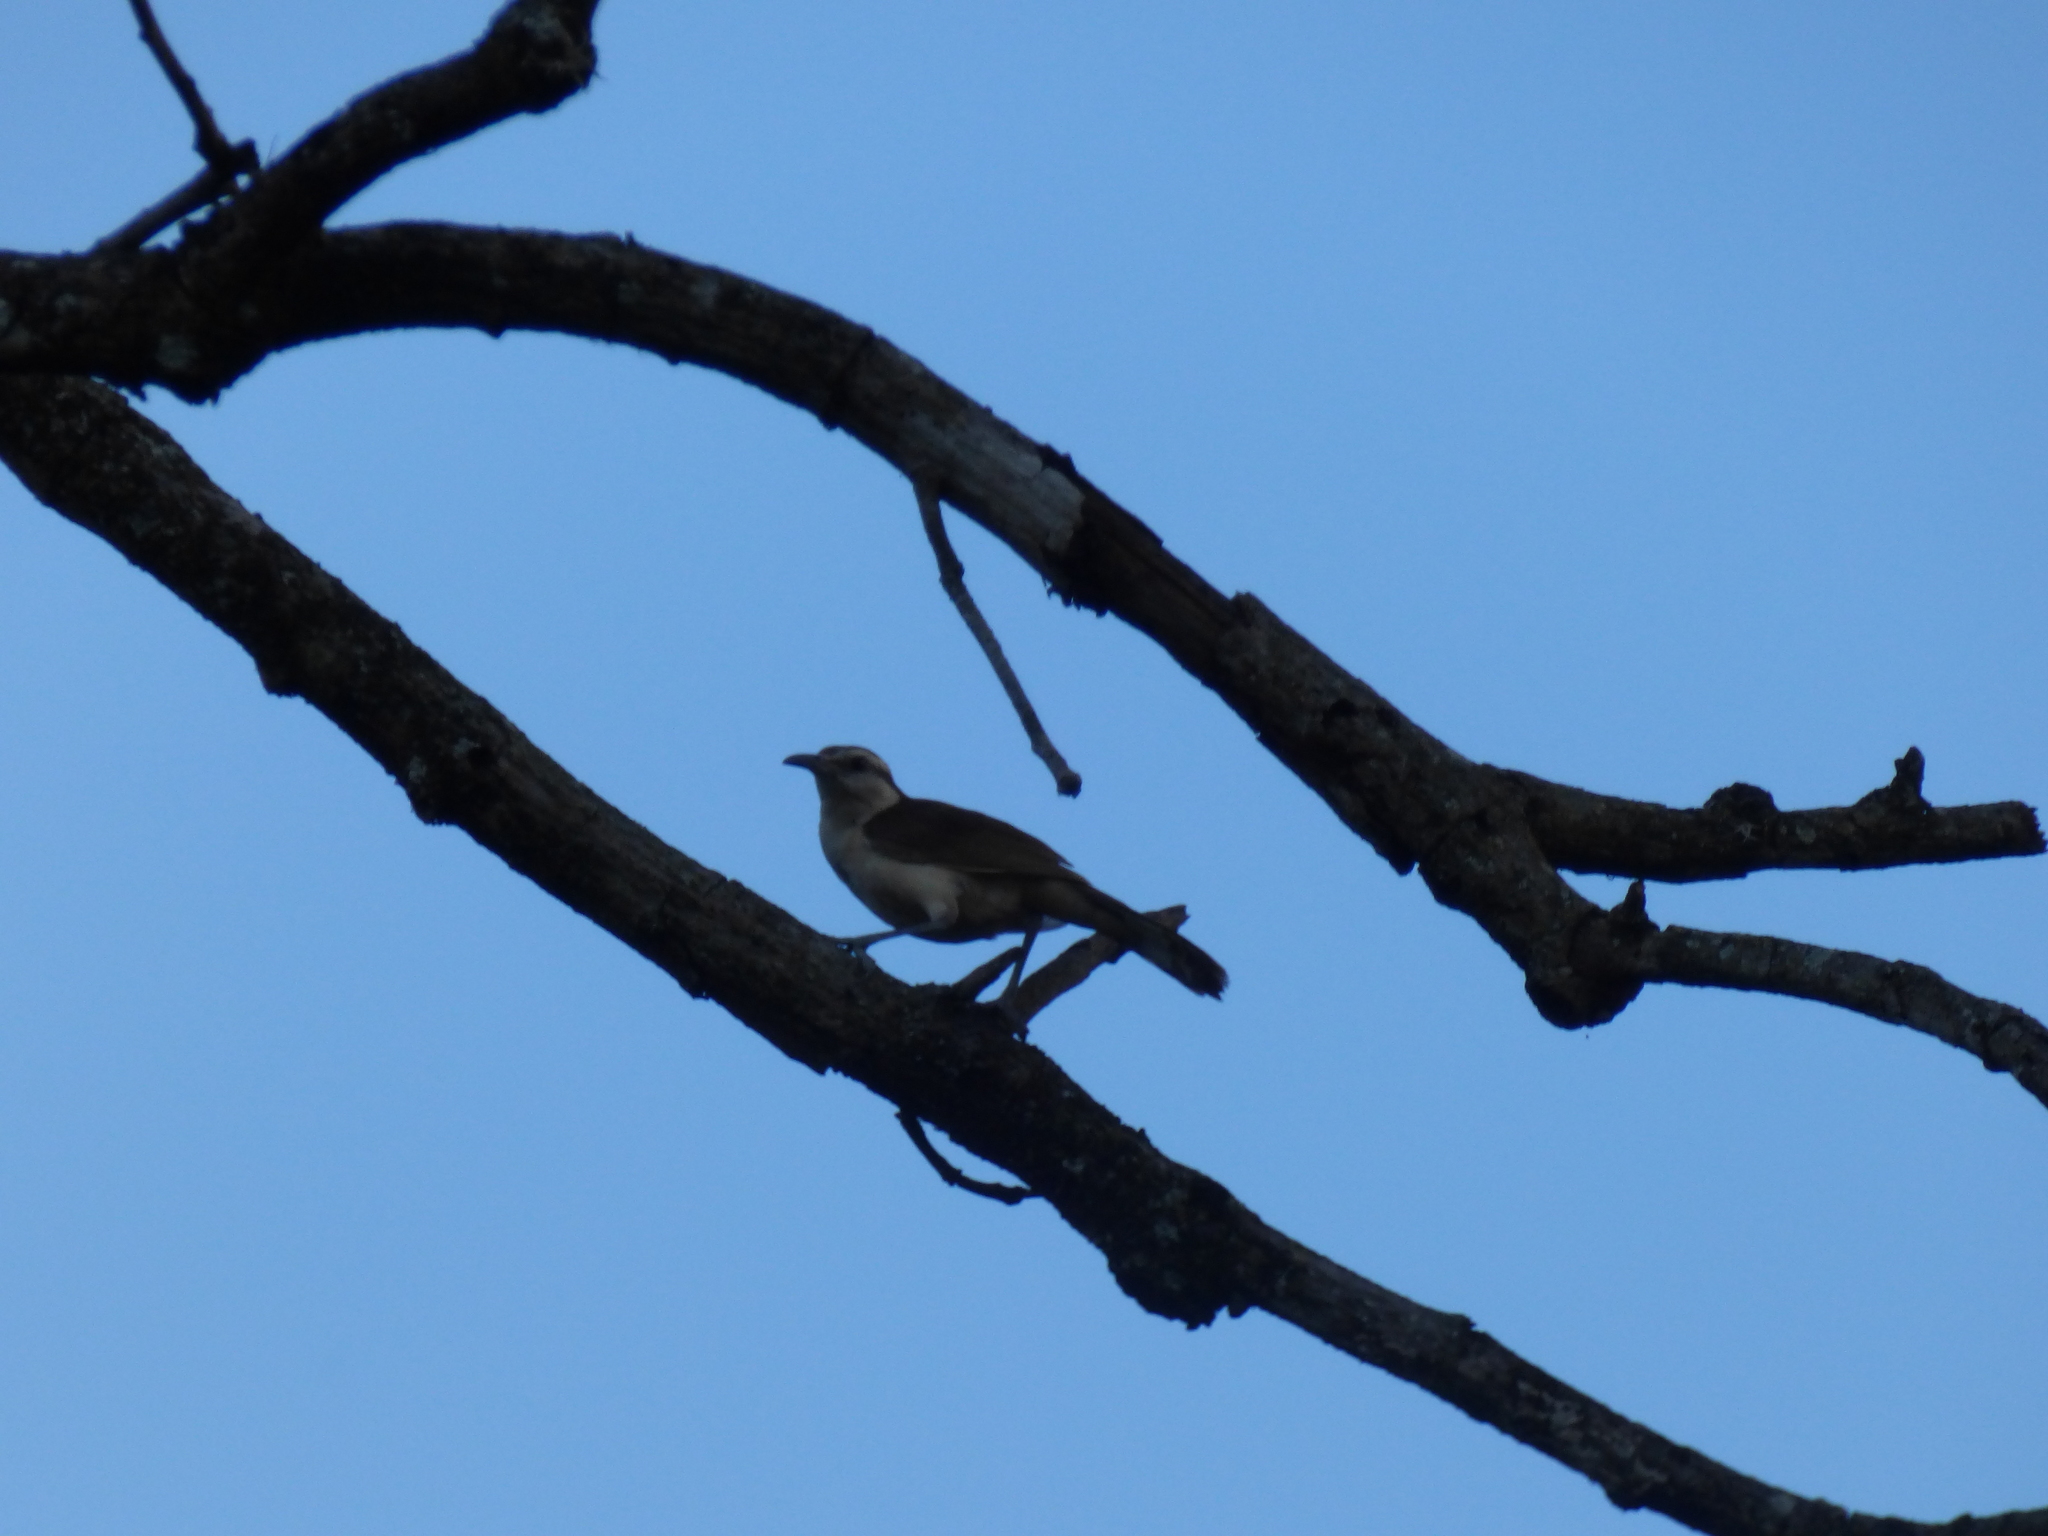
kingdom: Animalia
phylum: Chordata
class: Aves
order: Passeriformes
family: Troglodytidae
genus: Campylorhynchus
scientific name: Campylorhynchus griseus
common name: Bicolored wren
